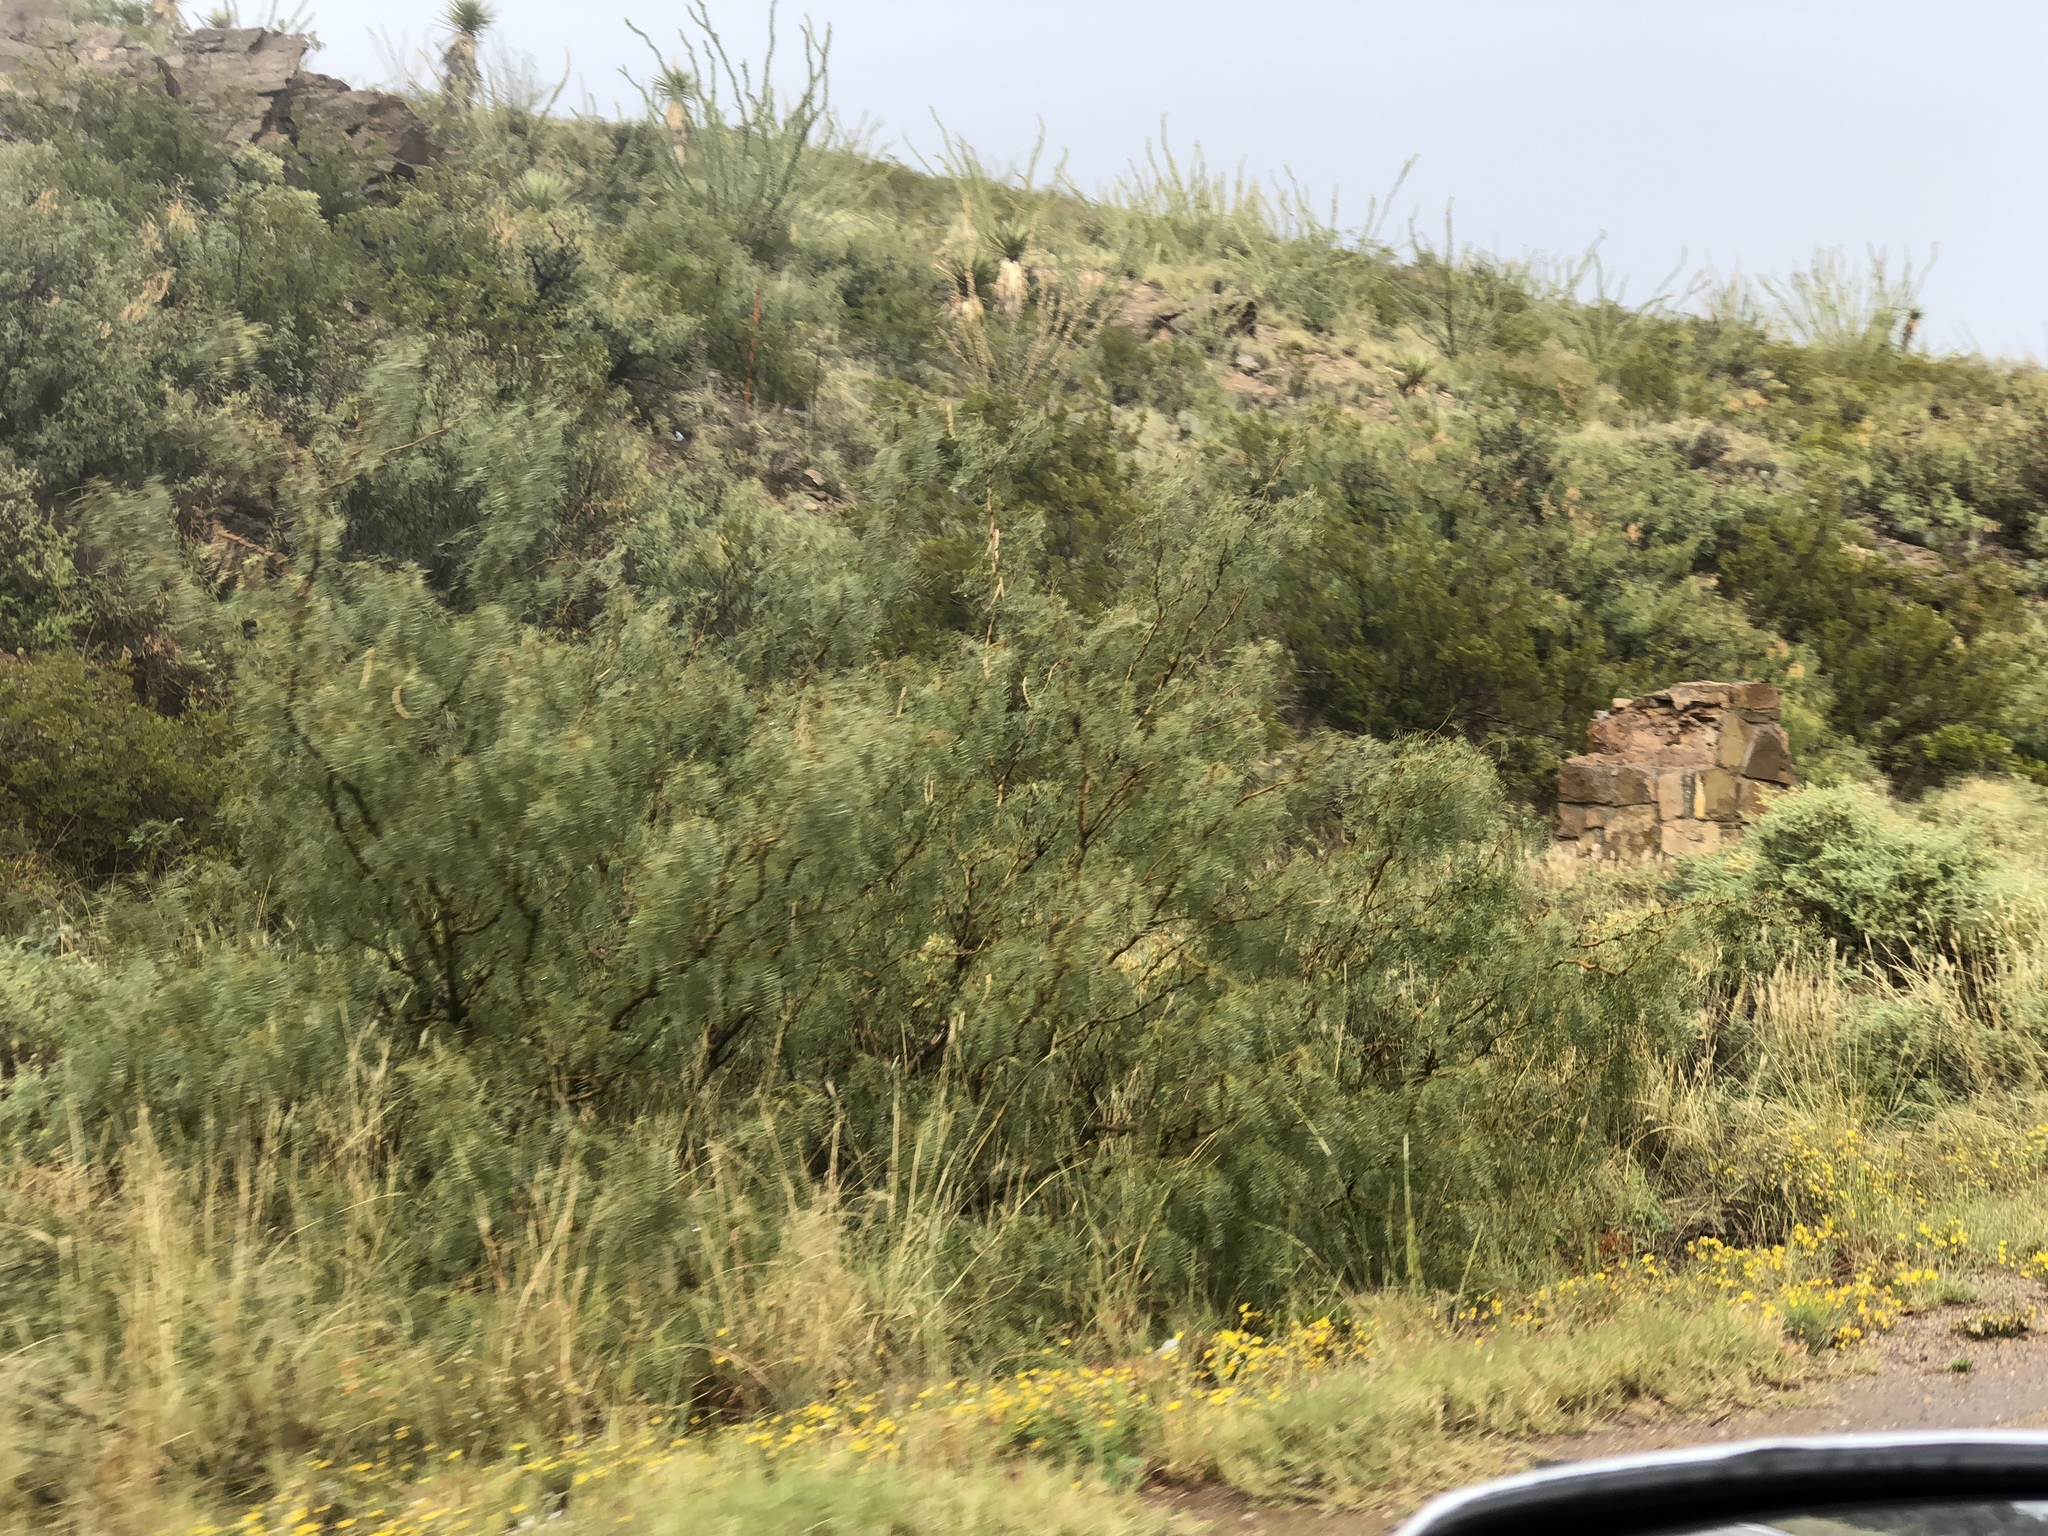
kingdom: Plantae
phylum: Tracheophyta
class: Magnoliopsida
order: Fabales
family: Fabaceae
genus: Prosopis
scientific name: Prosopis glandulosa
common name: Honey mesquite
